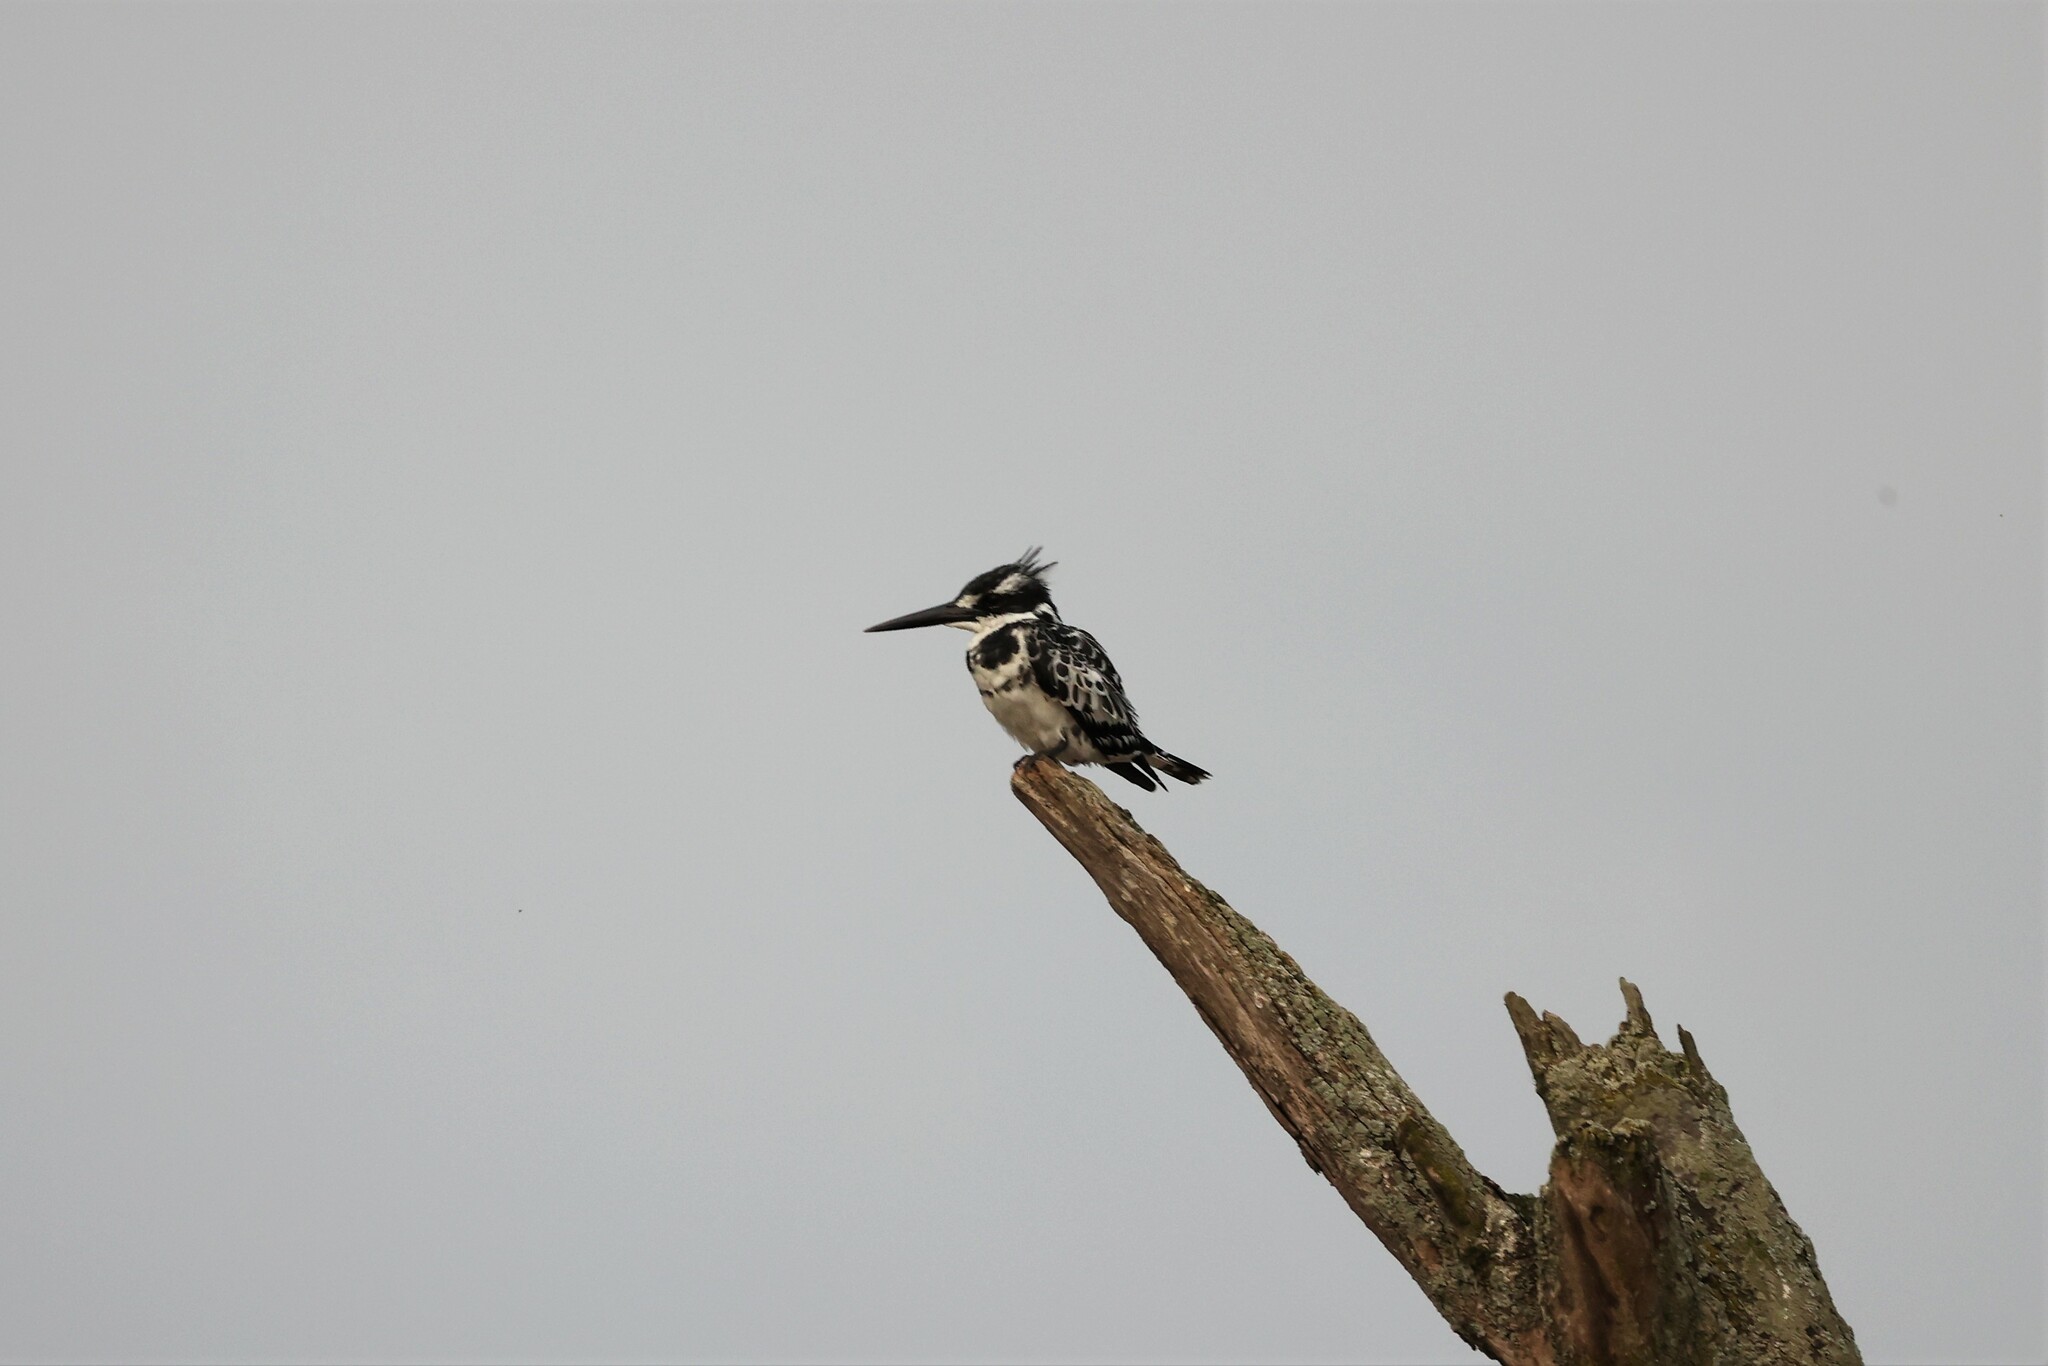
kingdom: Animalia
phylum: Chordata
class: Aves
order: Coraciiformes
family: Alcedinidae
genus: Ceryle
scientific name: Ceryle rudis
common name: Pied kingfisher
